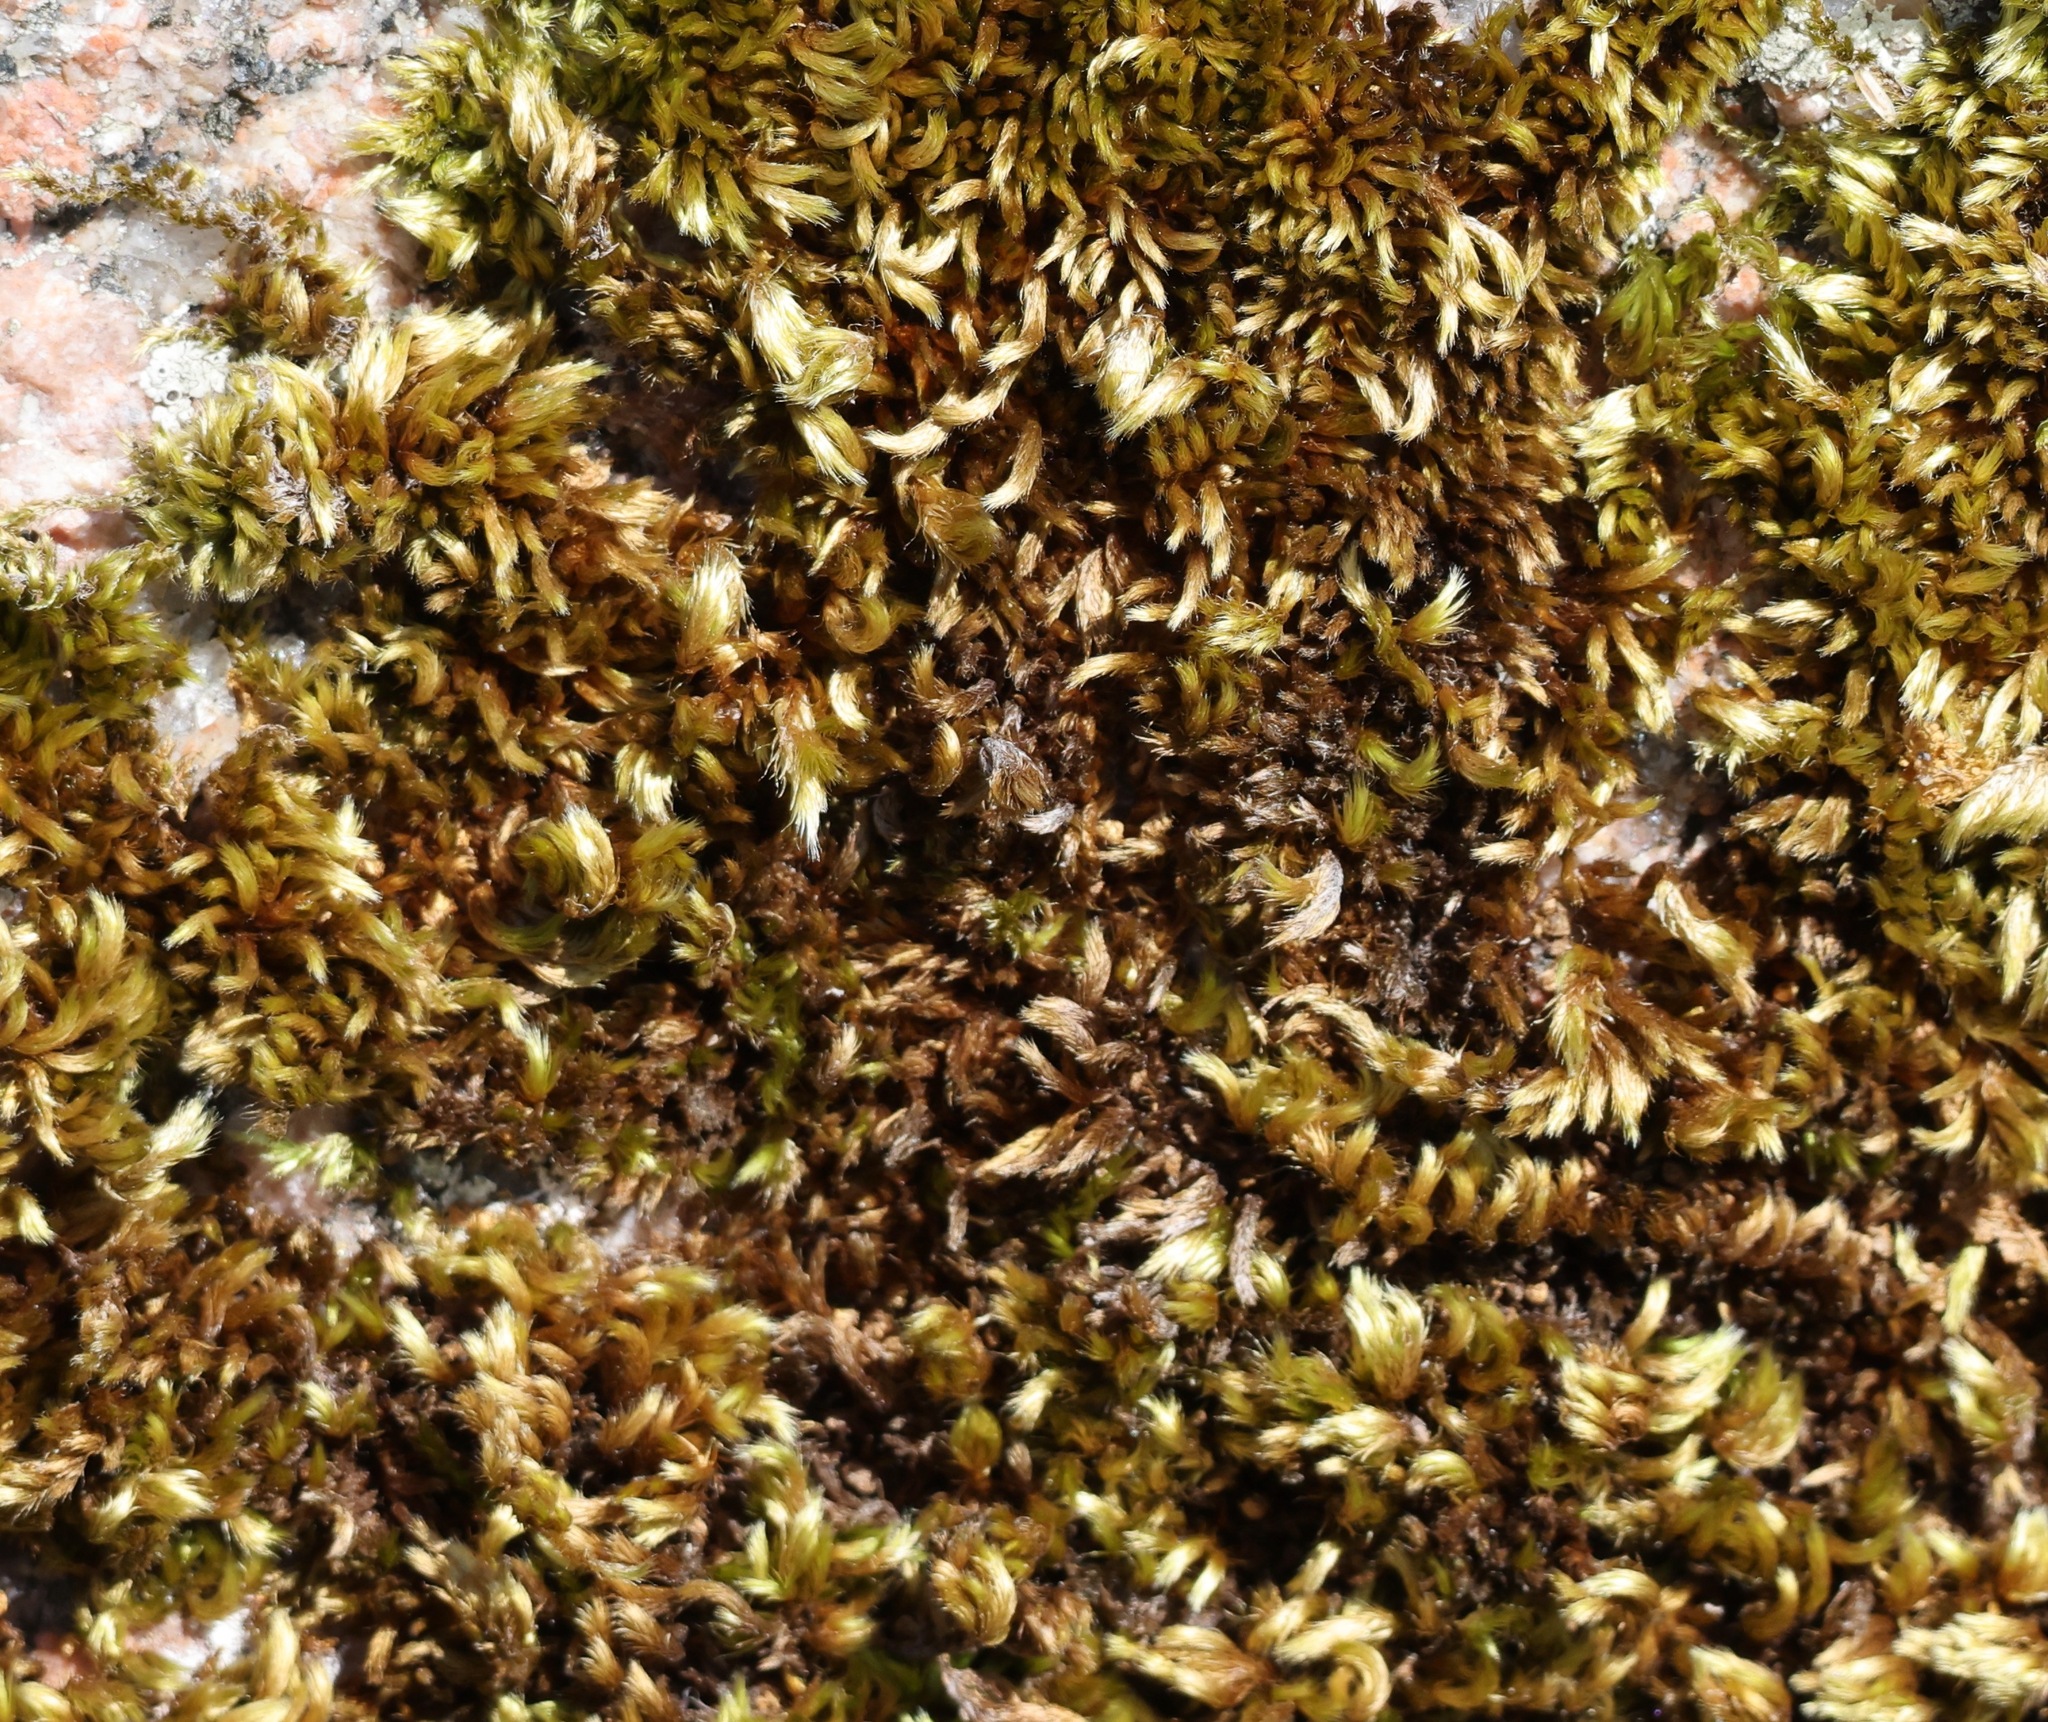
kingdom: Plantae
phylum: Bryophyta
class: Bryopsida
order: Hypnales
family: Brachytheciaceae
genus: Homalothecium
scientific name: Homalothecium sericeum
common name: Silky wall feather-moss
